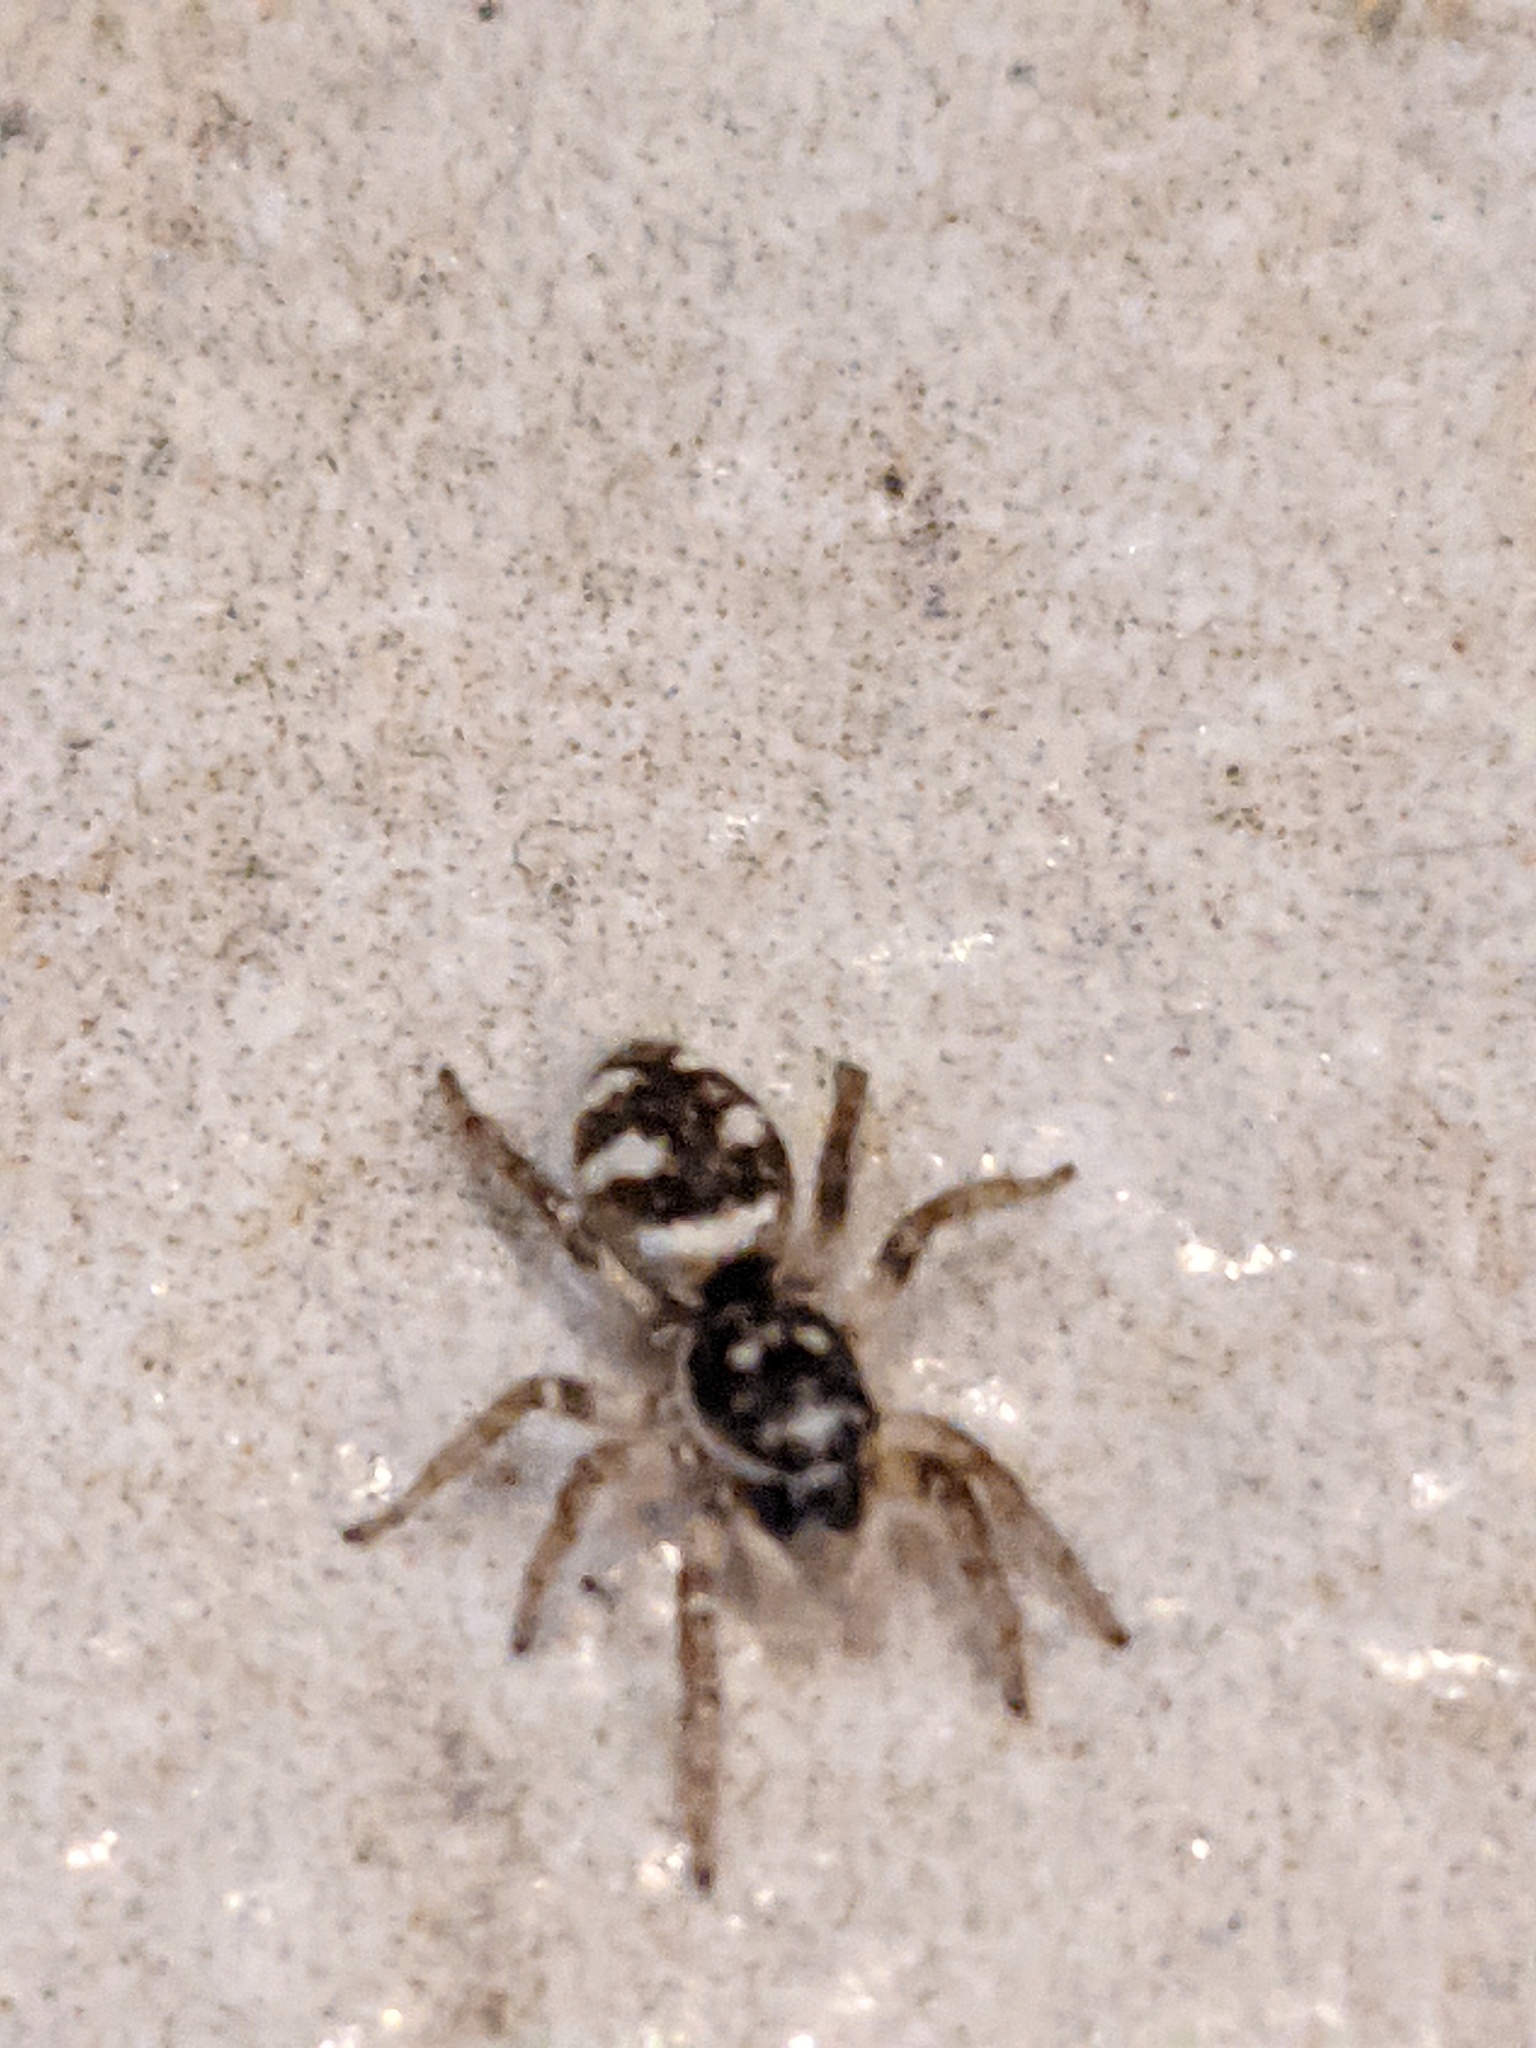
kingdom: Animalia
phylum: Arthropoda
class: Arachnida
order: Araneae
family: Salticidae
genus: Salticus
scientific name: Salticus scenicus
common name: Zebra jumper
